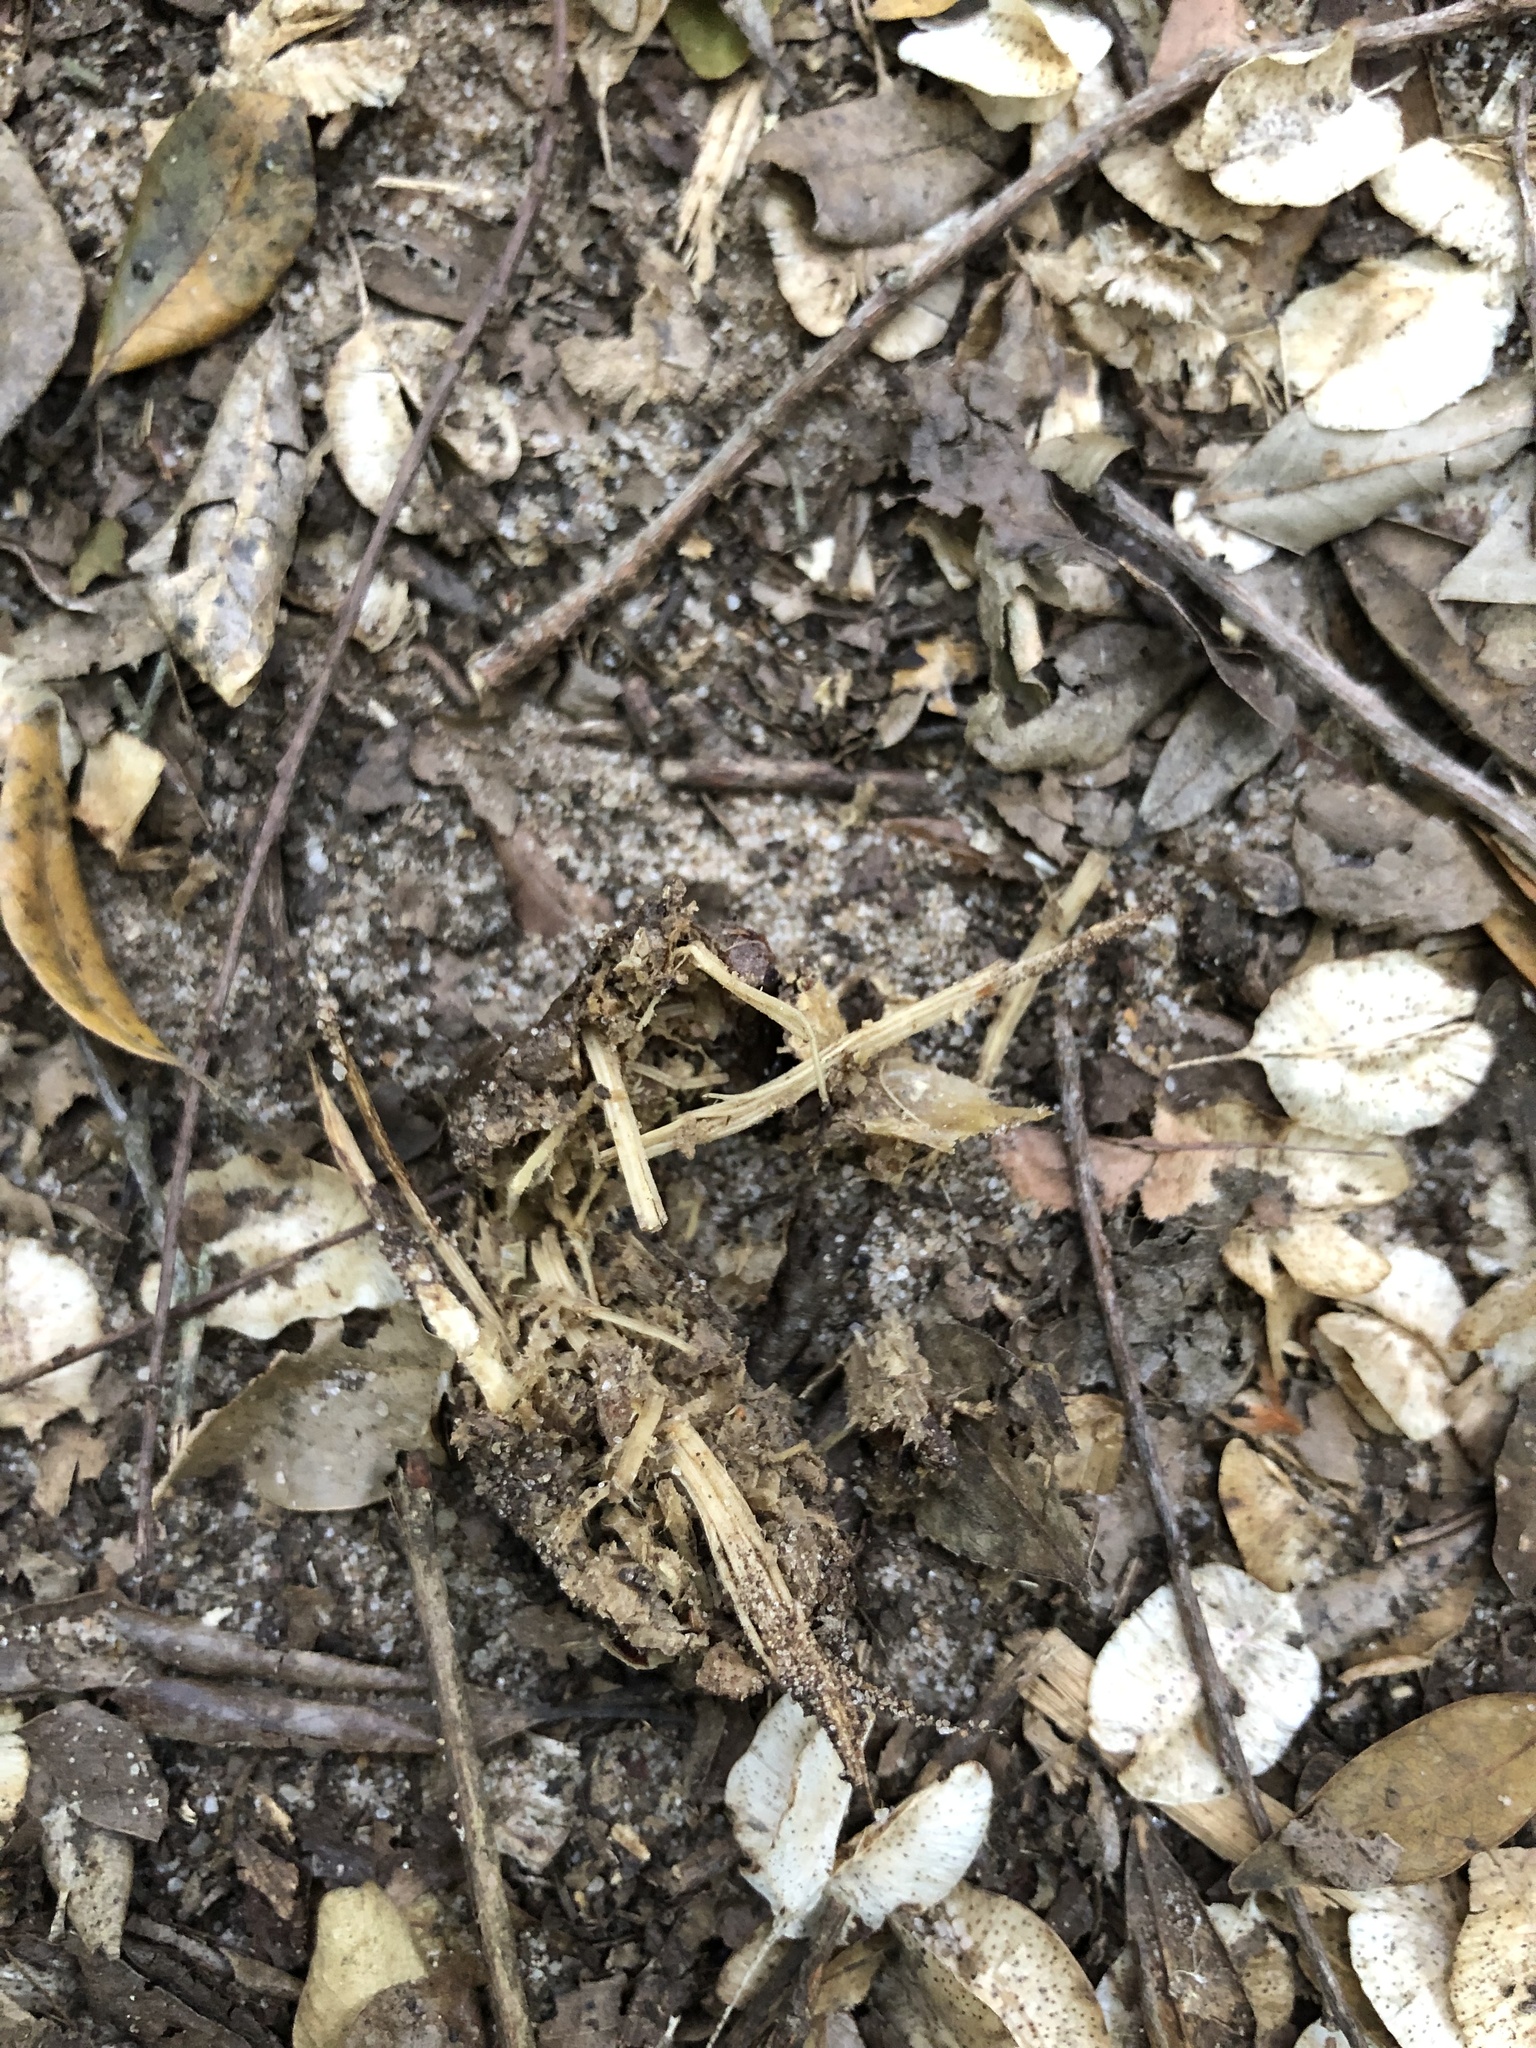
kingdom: Animalia
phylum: Chordata
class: Mammalia
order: Rodentia
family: Hystricidae
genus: Hystrix
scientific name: Hystrix africaeaustralis
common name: Cape porcupine
